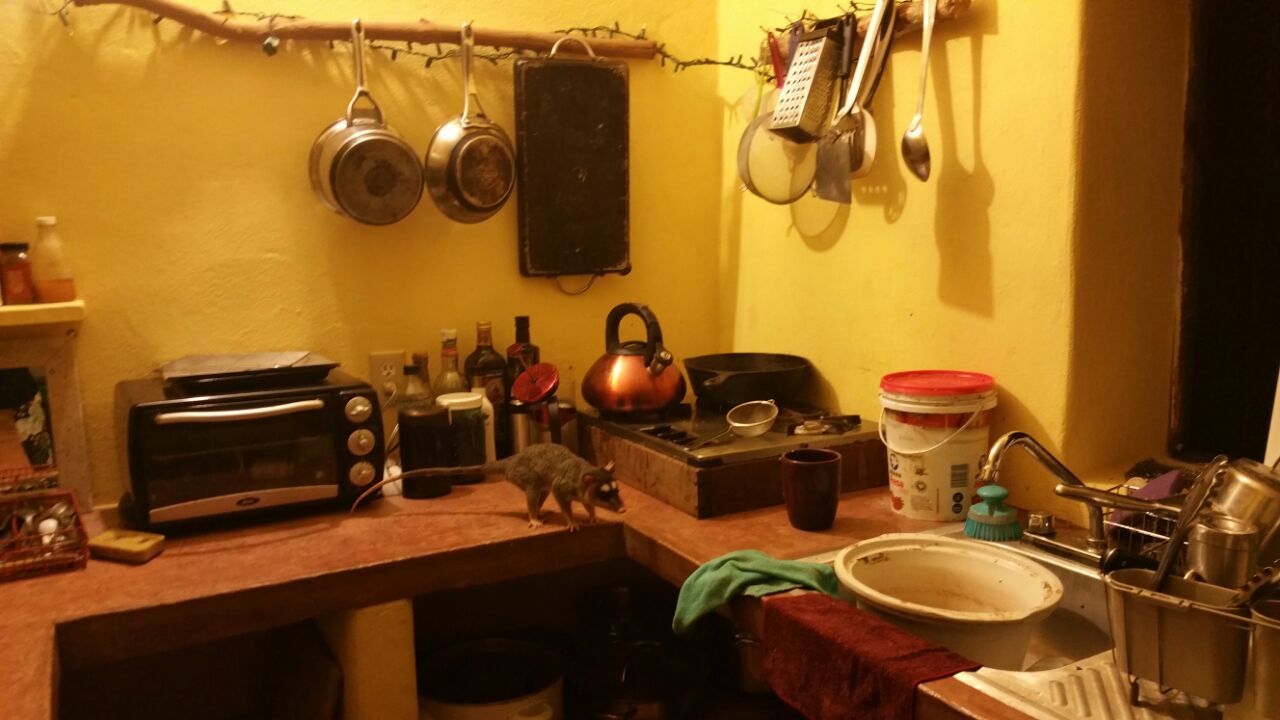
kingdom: Animalia
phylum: Chordata
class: Mammalia
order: Didelphimorphia
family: Didelphidae
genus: Philander
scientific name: Philander
